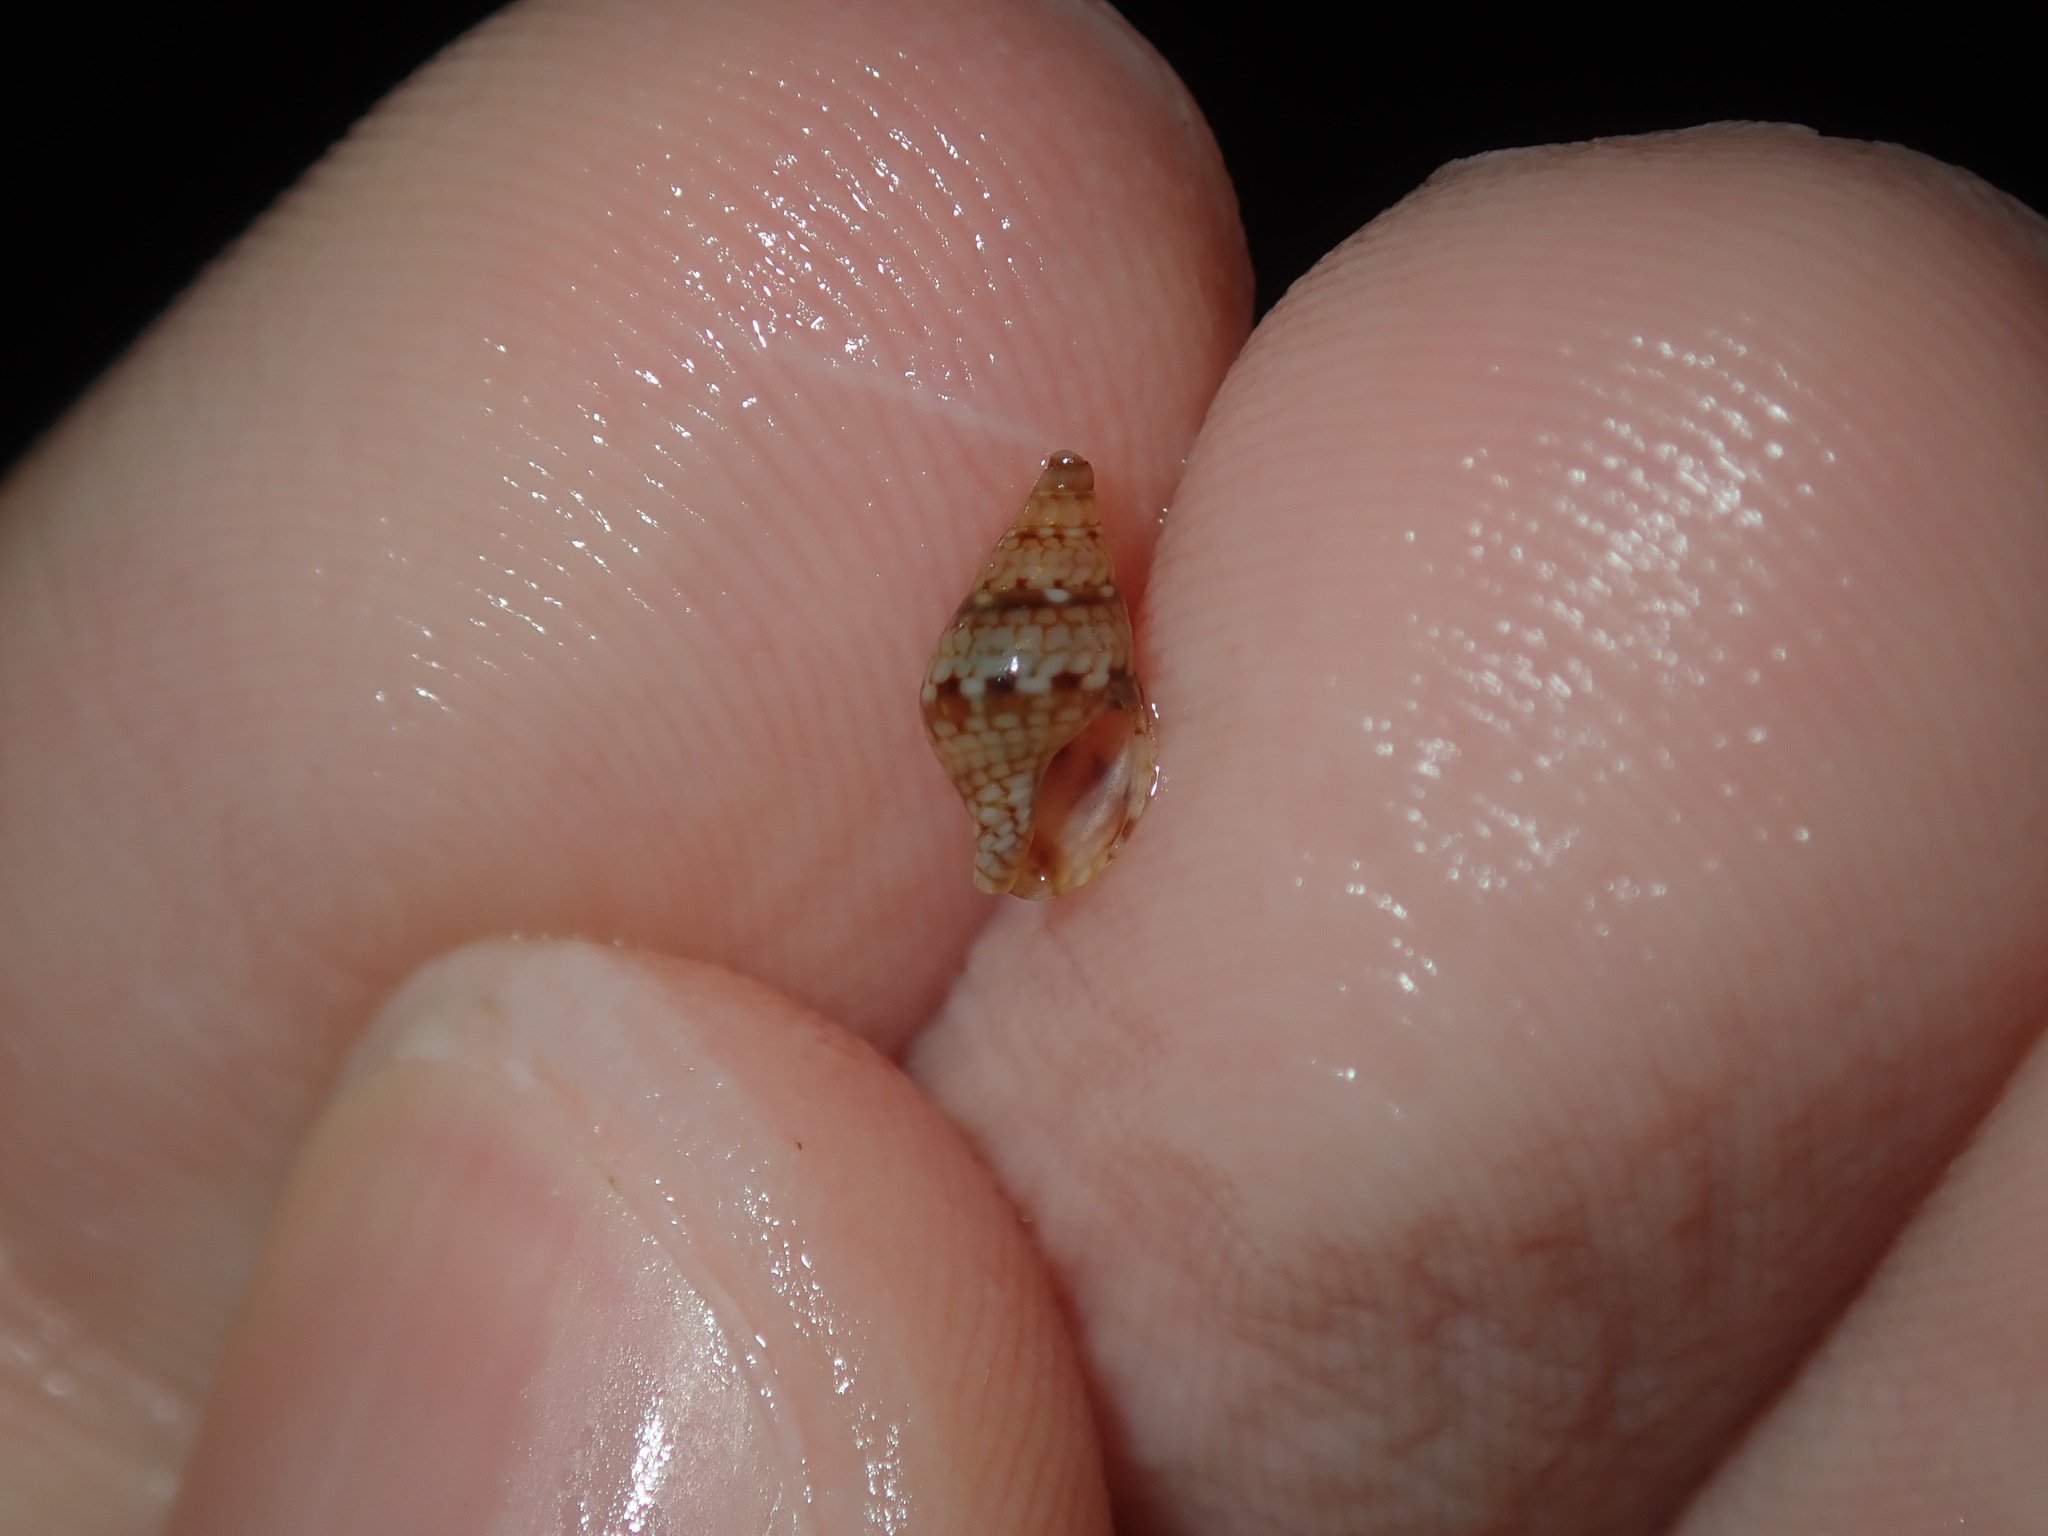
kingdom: Animalia
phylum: Mollusca
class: Gastropoda
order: Neogastropoda
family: Columbellidae
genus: Pseudamycla
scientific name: Pseudamycla dermestoidea
